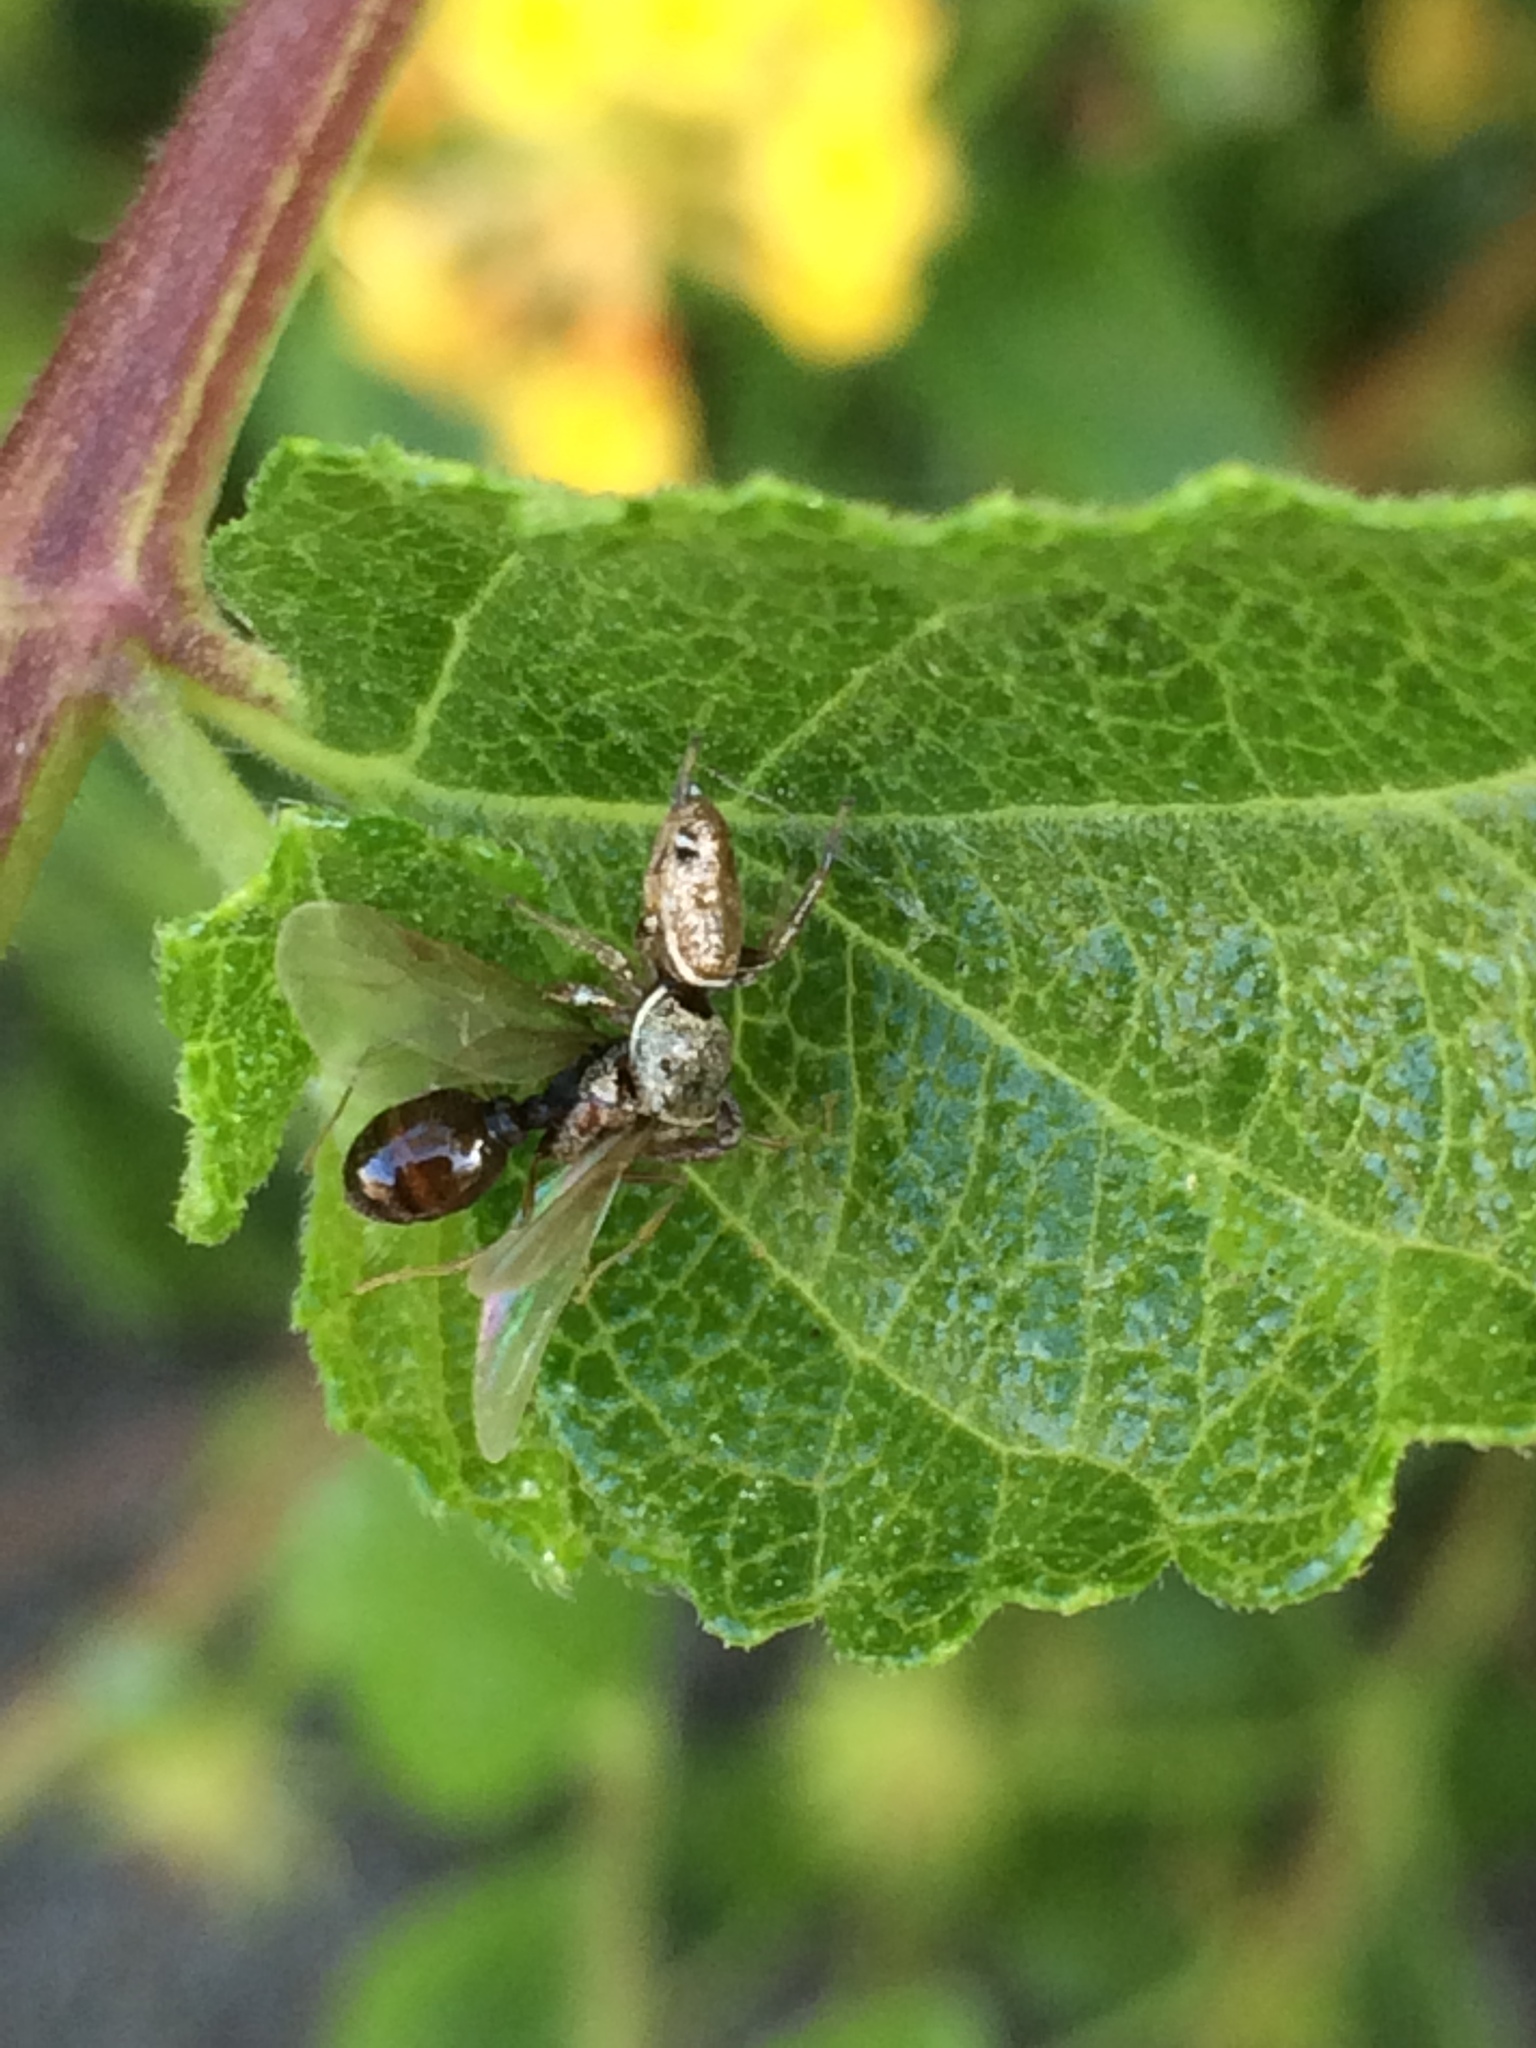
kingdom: Animalia
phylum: Arthropoda
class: Arachnida
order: Araneae
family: Salticidae
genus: Sassacus
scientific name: Sassacus vitis
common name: Jumping spiders
